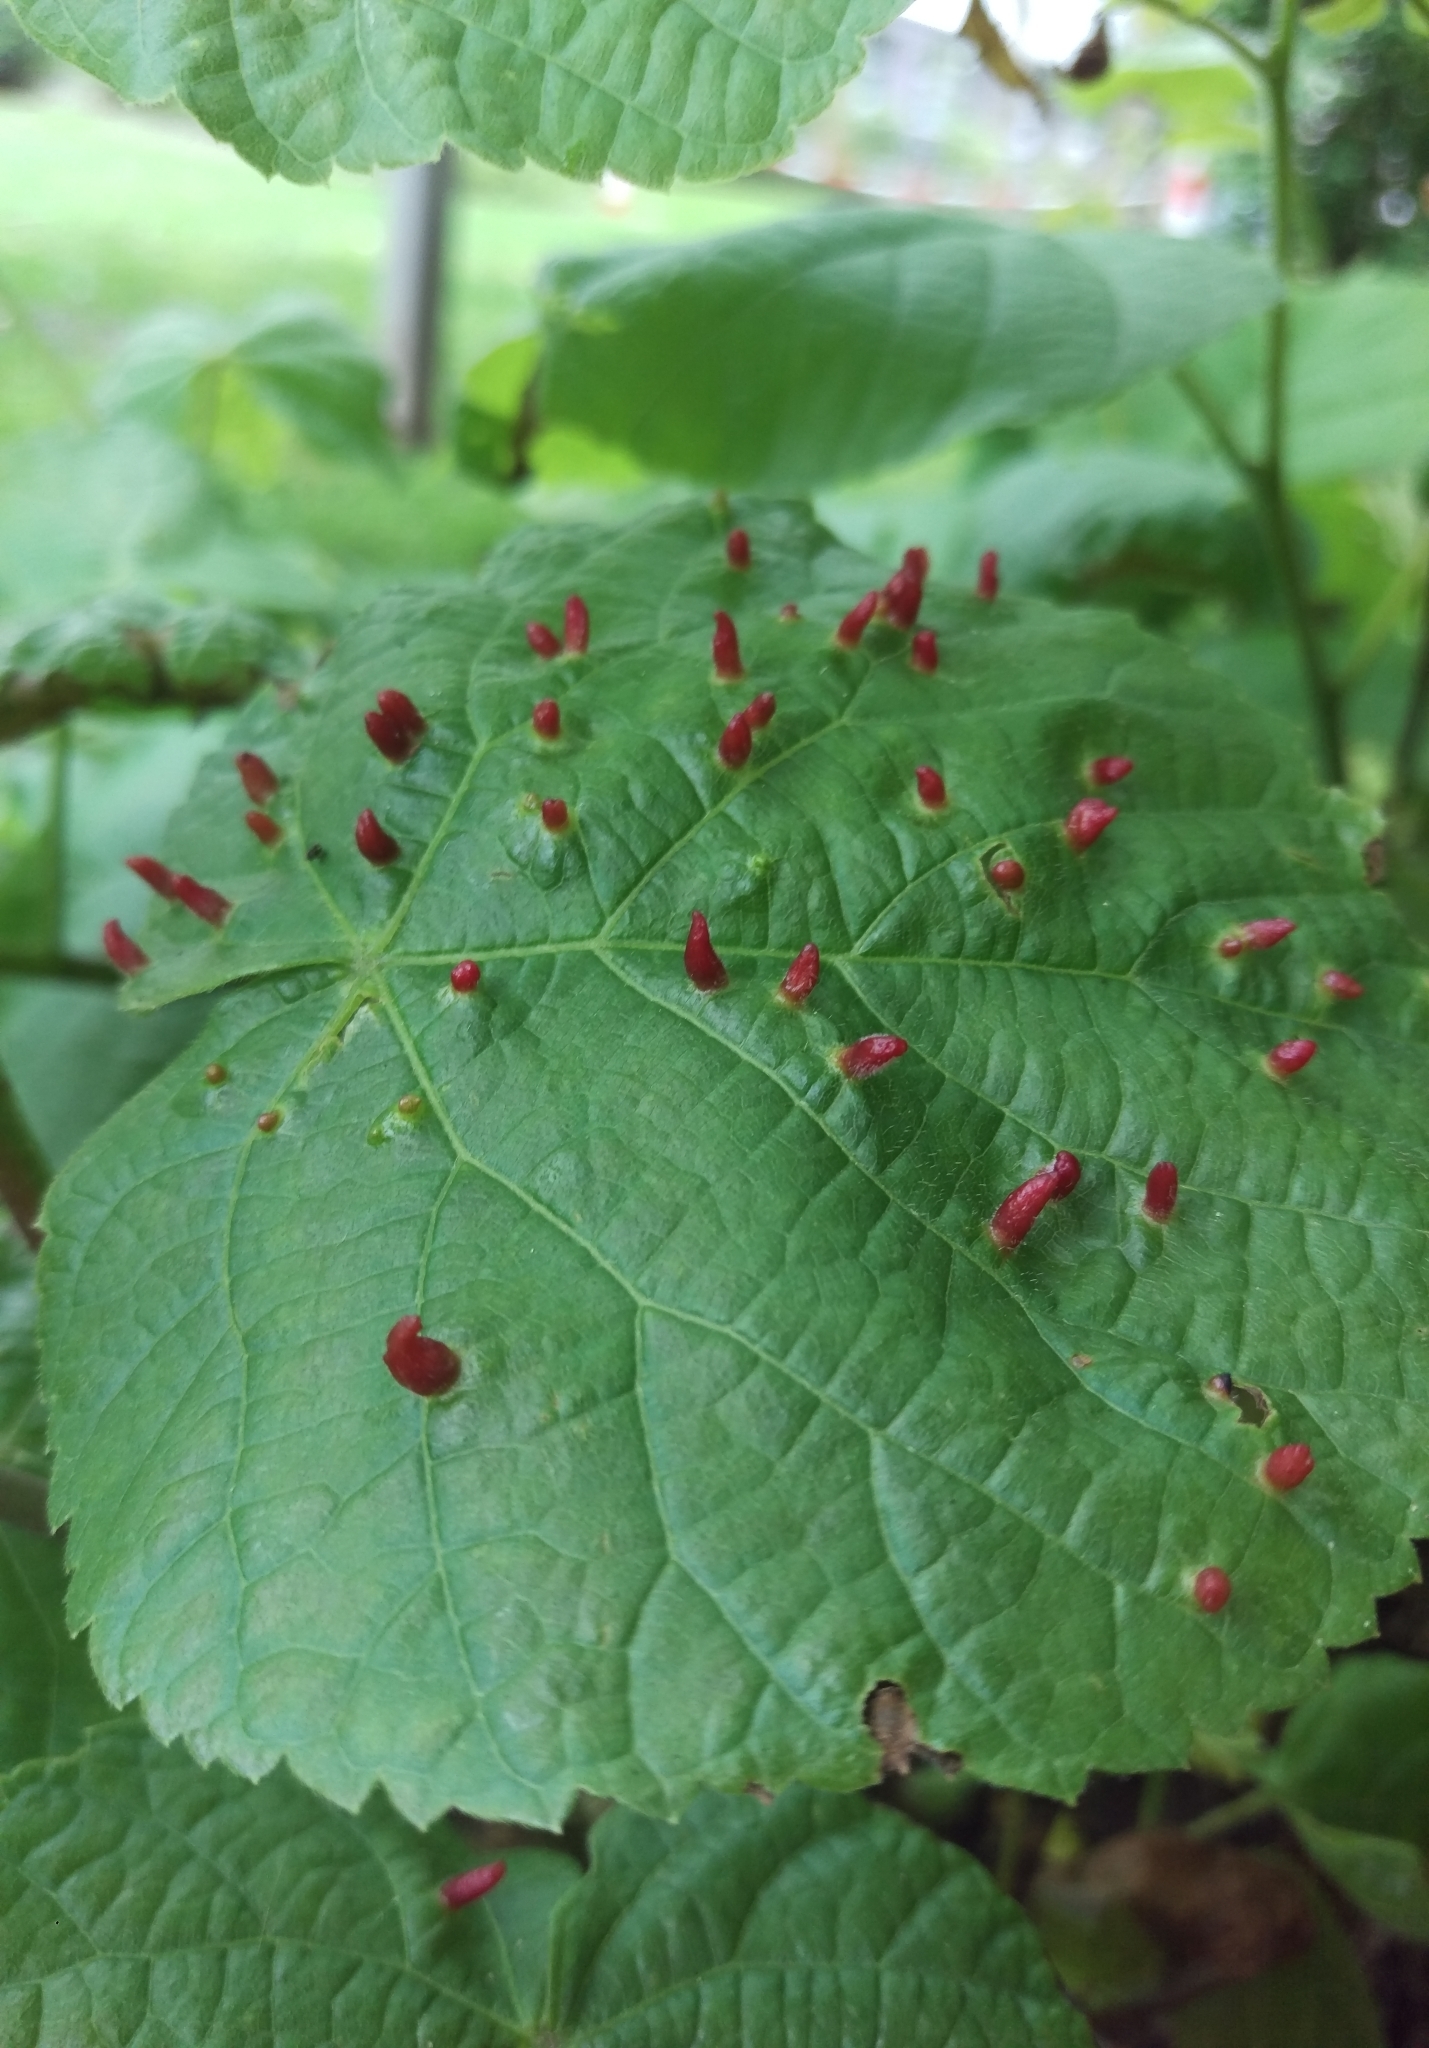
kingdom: Animalia
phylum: Arthropoda
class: Arachnida
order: Trombidiformes
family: Eriophyidae
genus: Eriophyes
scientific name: Eriophyes tiliae
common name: Red nail gall mite
